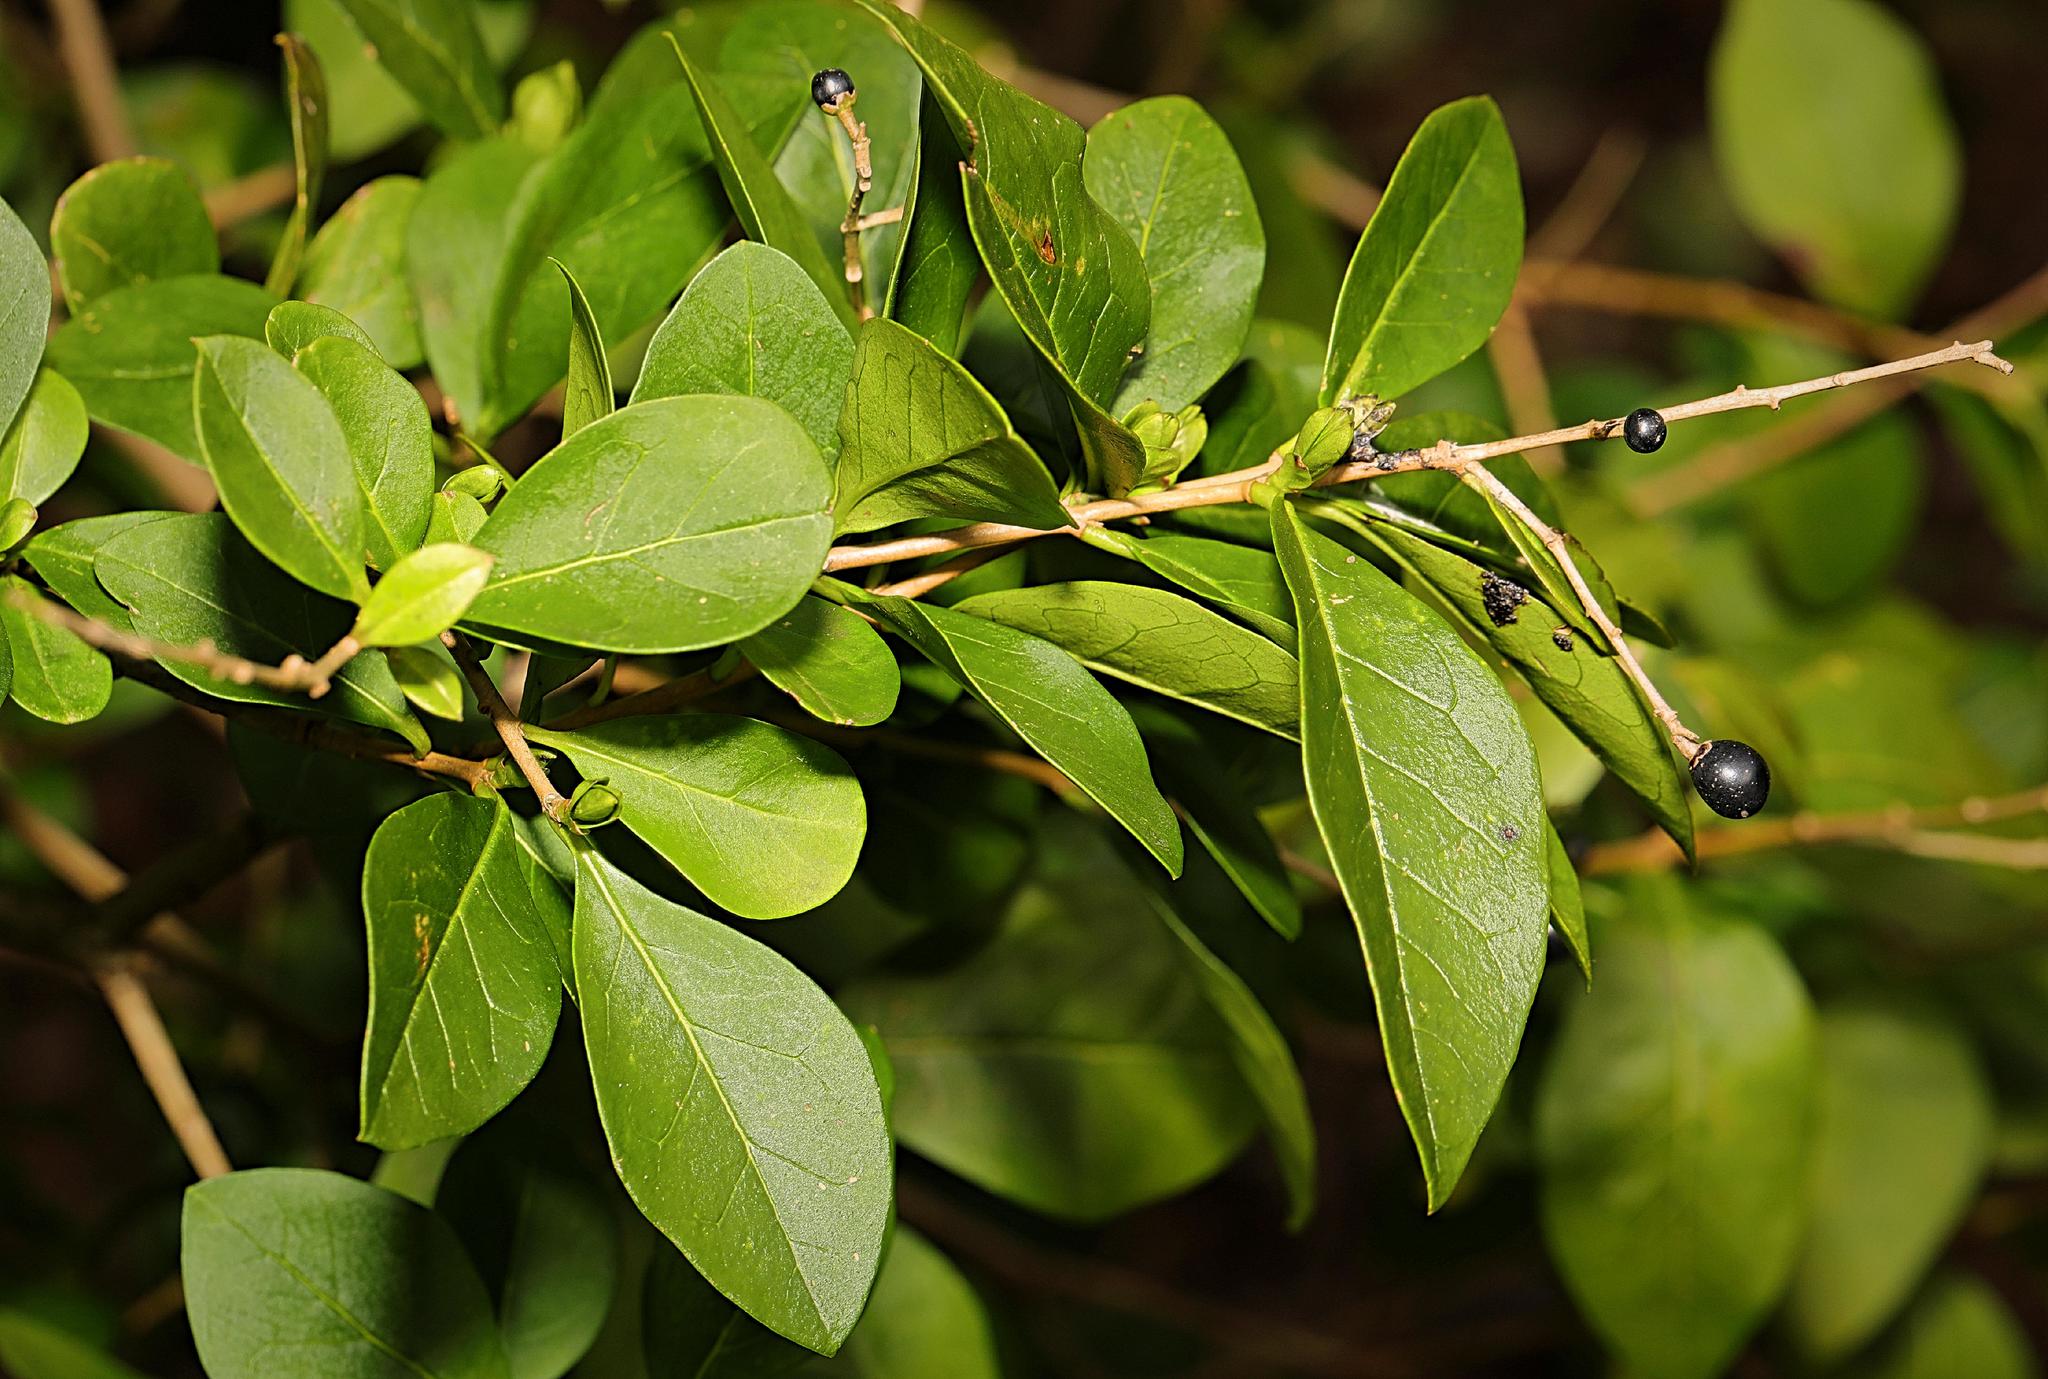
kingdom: Plantae
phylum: Tracheophyta
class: Magnoliopsida
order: Lamiales
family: Oleaceae
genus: Ligustrum
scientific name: Ligustrum ovalifolium
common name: California privet
